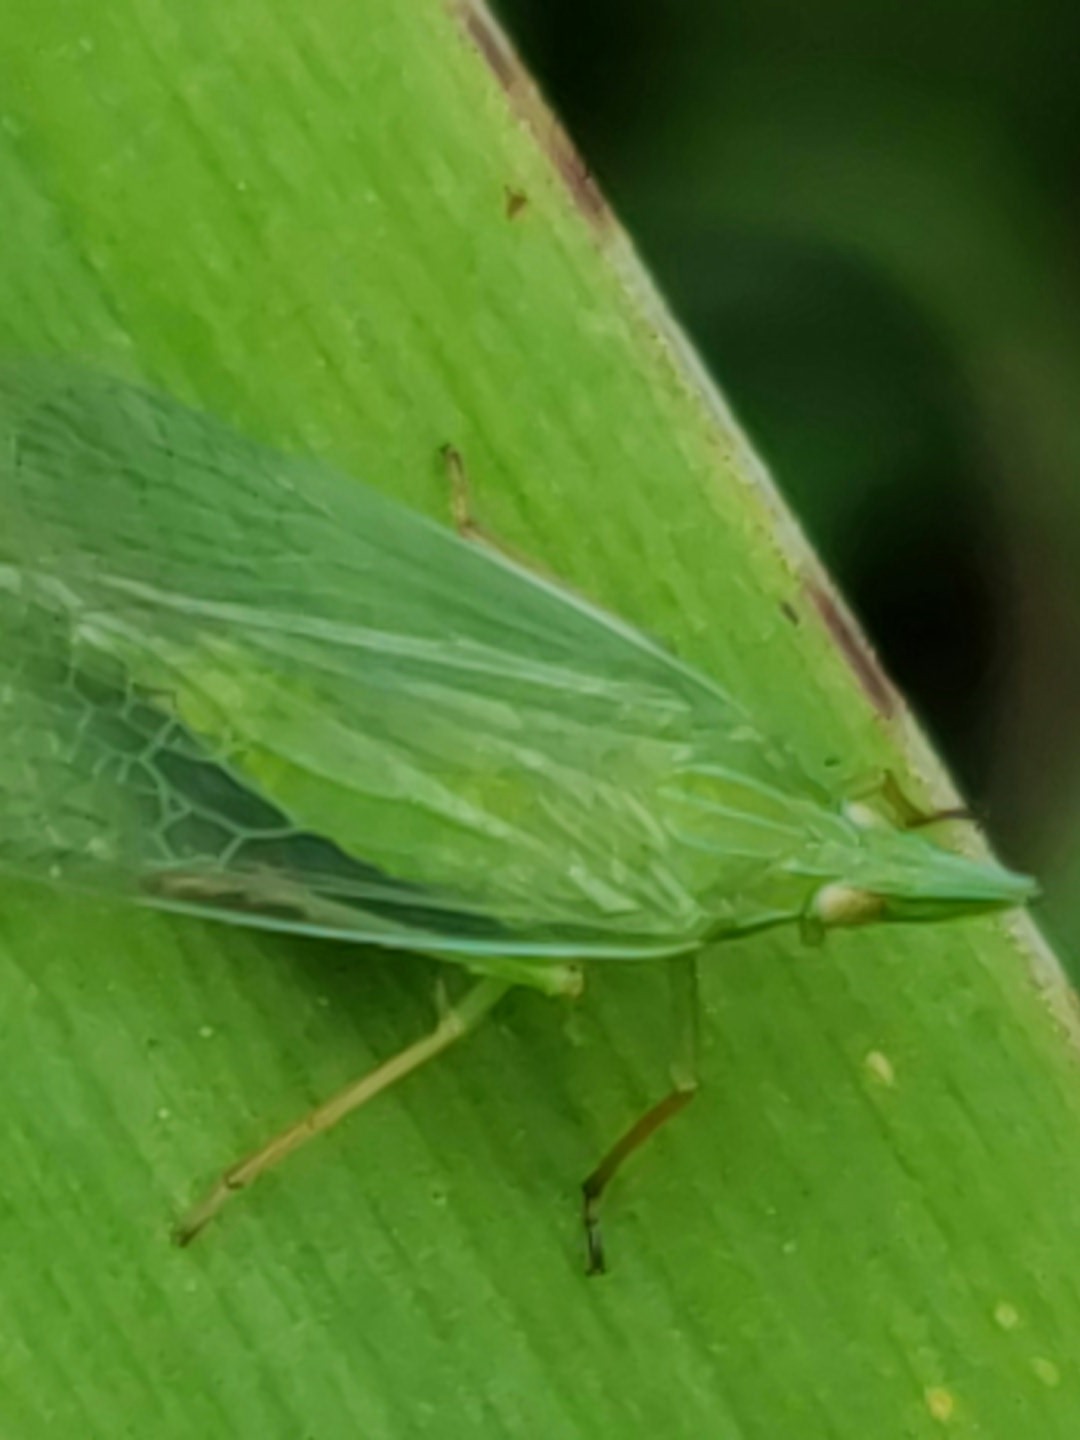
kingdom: Animalia
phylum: Arthropoda
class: Insecta
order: Hemiptera
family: Dictyopharidae
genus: Rhynchomitra
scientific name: Rhynchomitra microrhina
